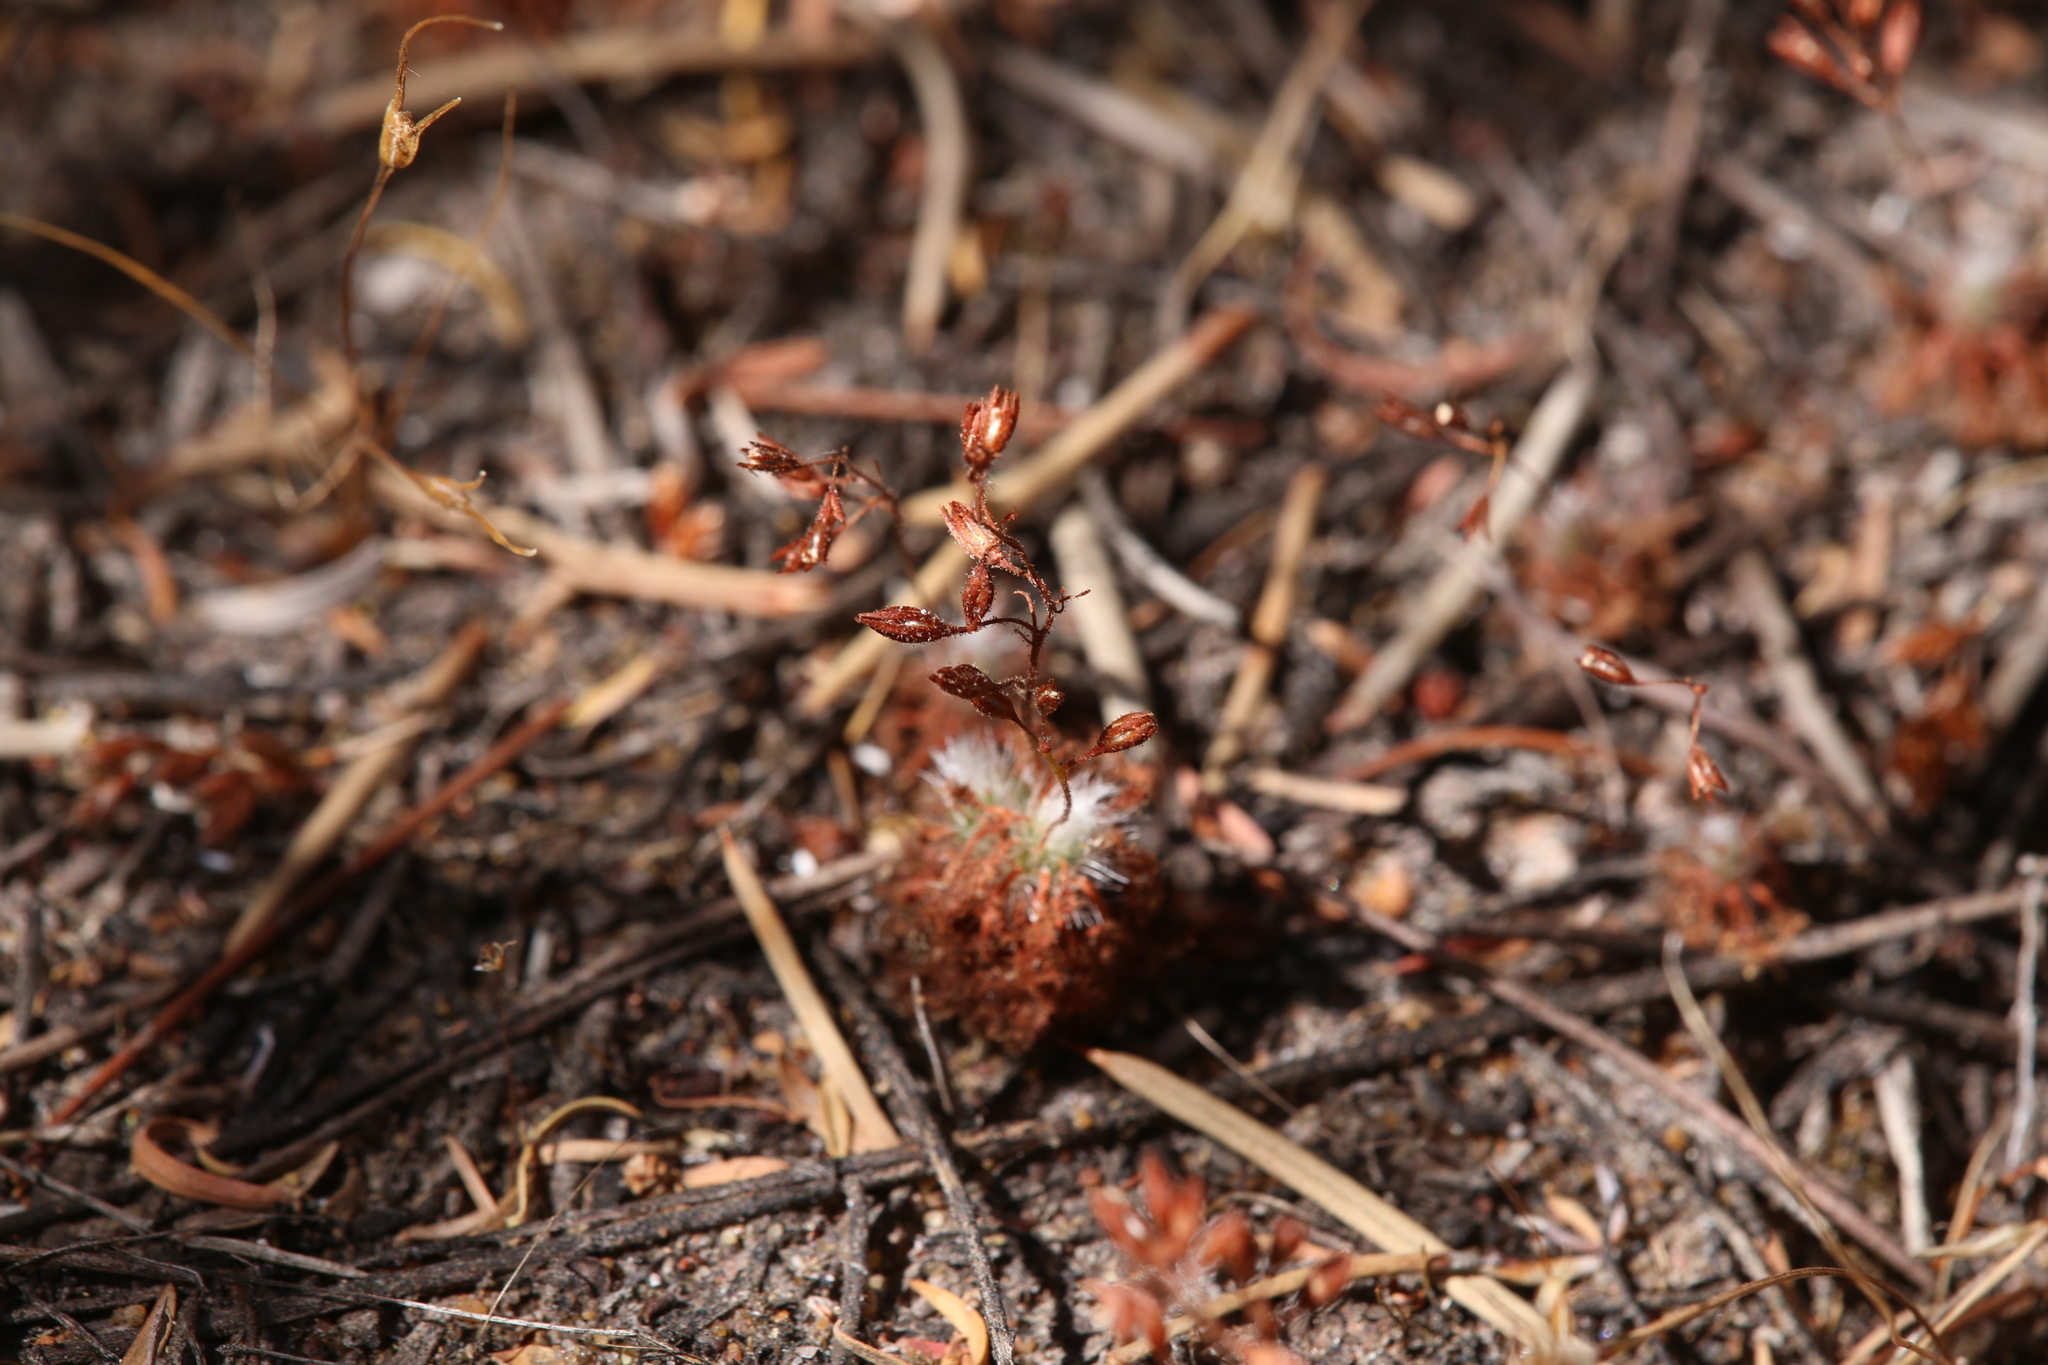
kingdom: Plantae
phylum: Tracheophyta
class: Magnoliopsida
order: Caryophyllales
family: Droseraceae
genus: Drosera
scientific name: Drosera nitidula
